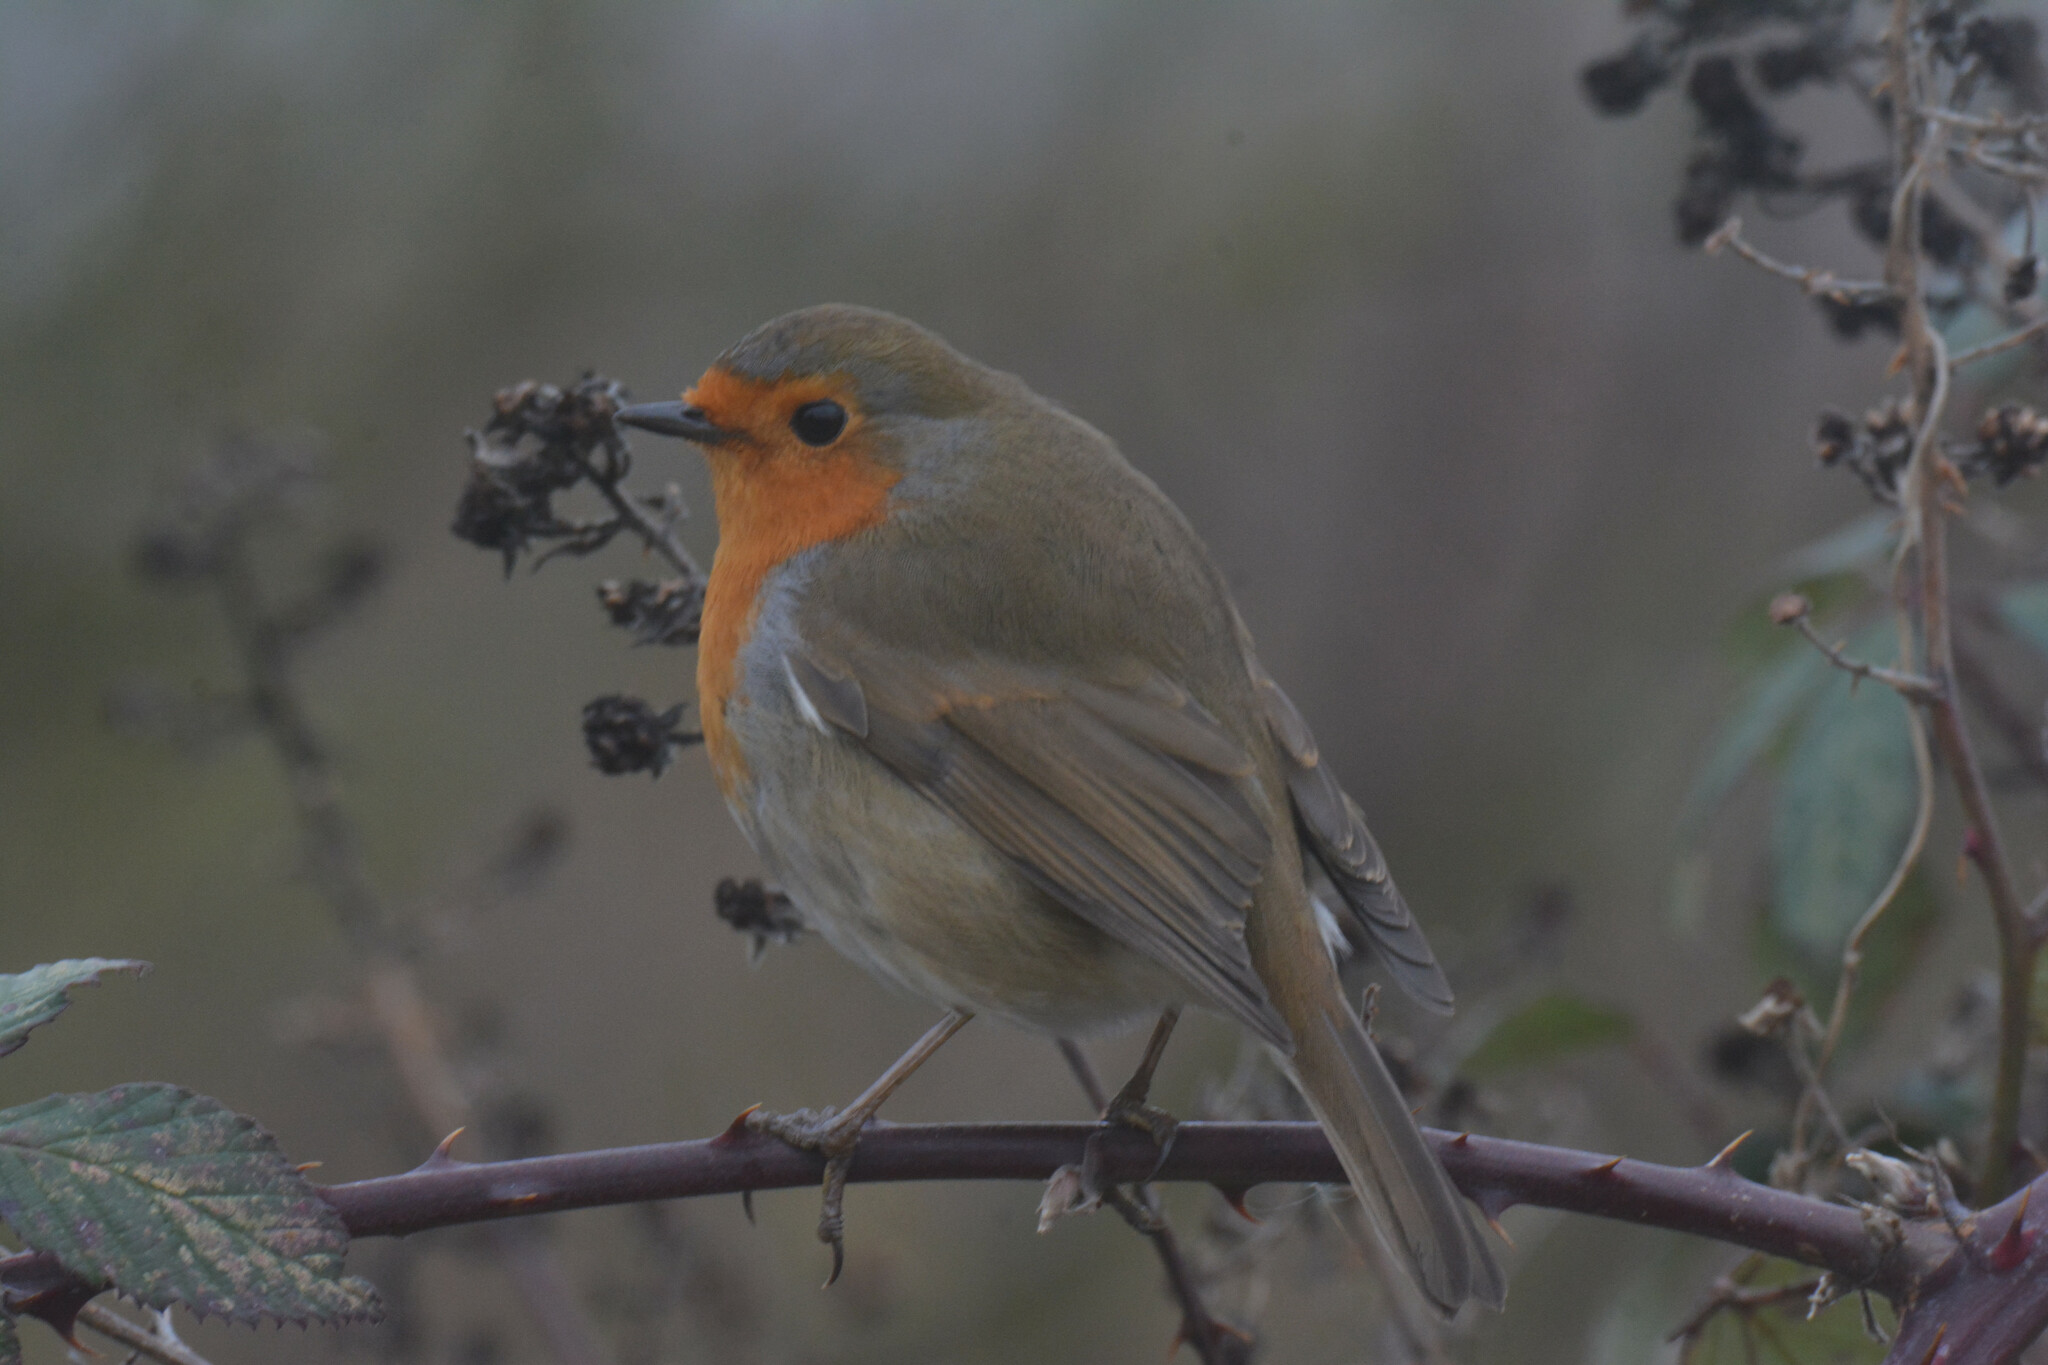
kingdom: Animalia
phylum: Chordata
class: Aves
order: Passeriformes
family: Muscicapidae
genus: Erithacus
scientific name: Erithacus rubecula
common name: European robin
